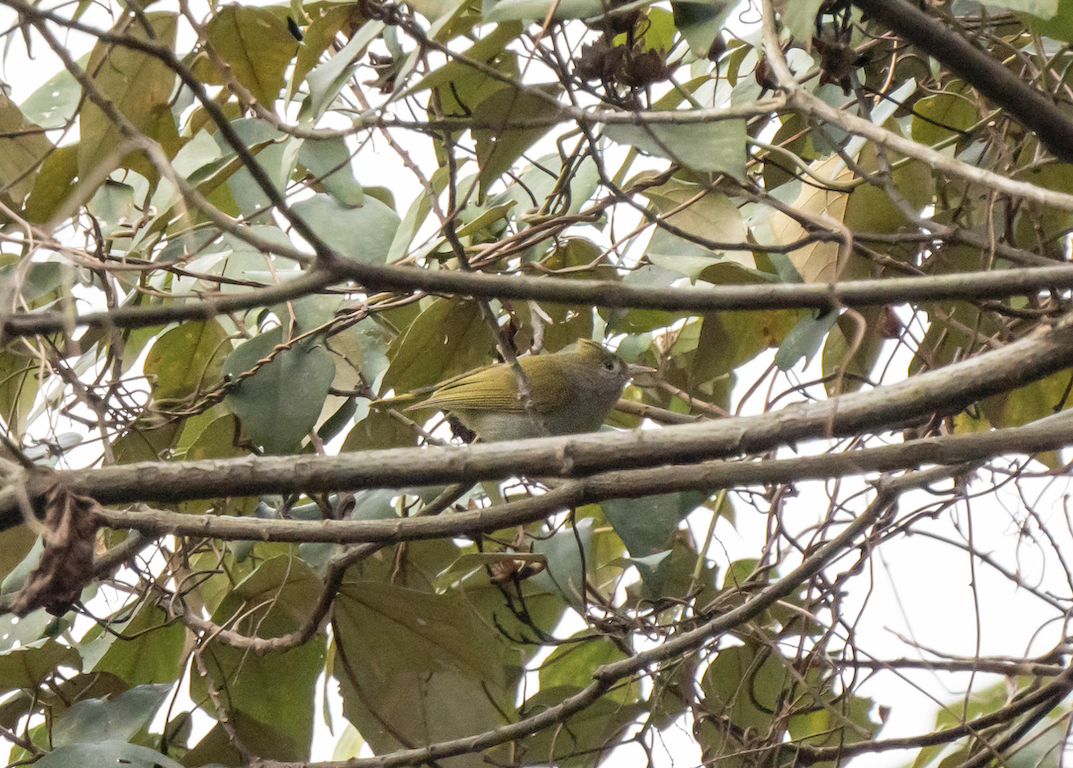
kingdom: Animalia
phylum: Chordata
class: Aves
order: Passeriformes
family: Vireonidae
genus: Erpornis
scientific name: Erpornis zantholeuca
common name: White-bellied erpornis
